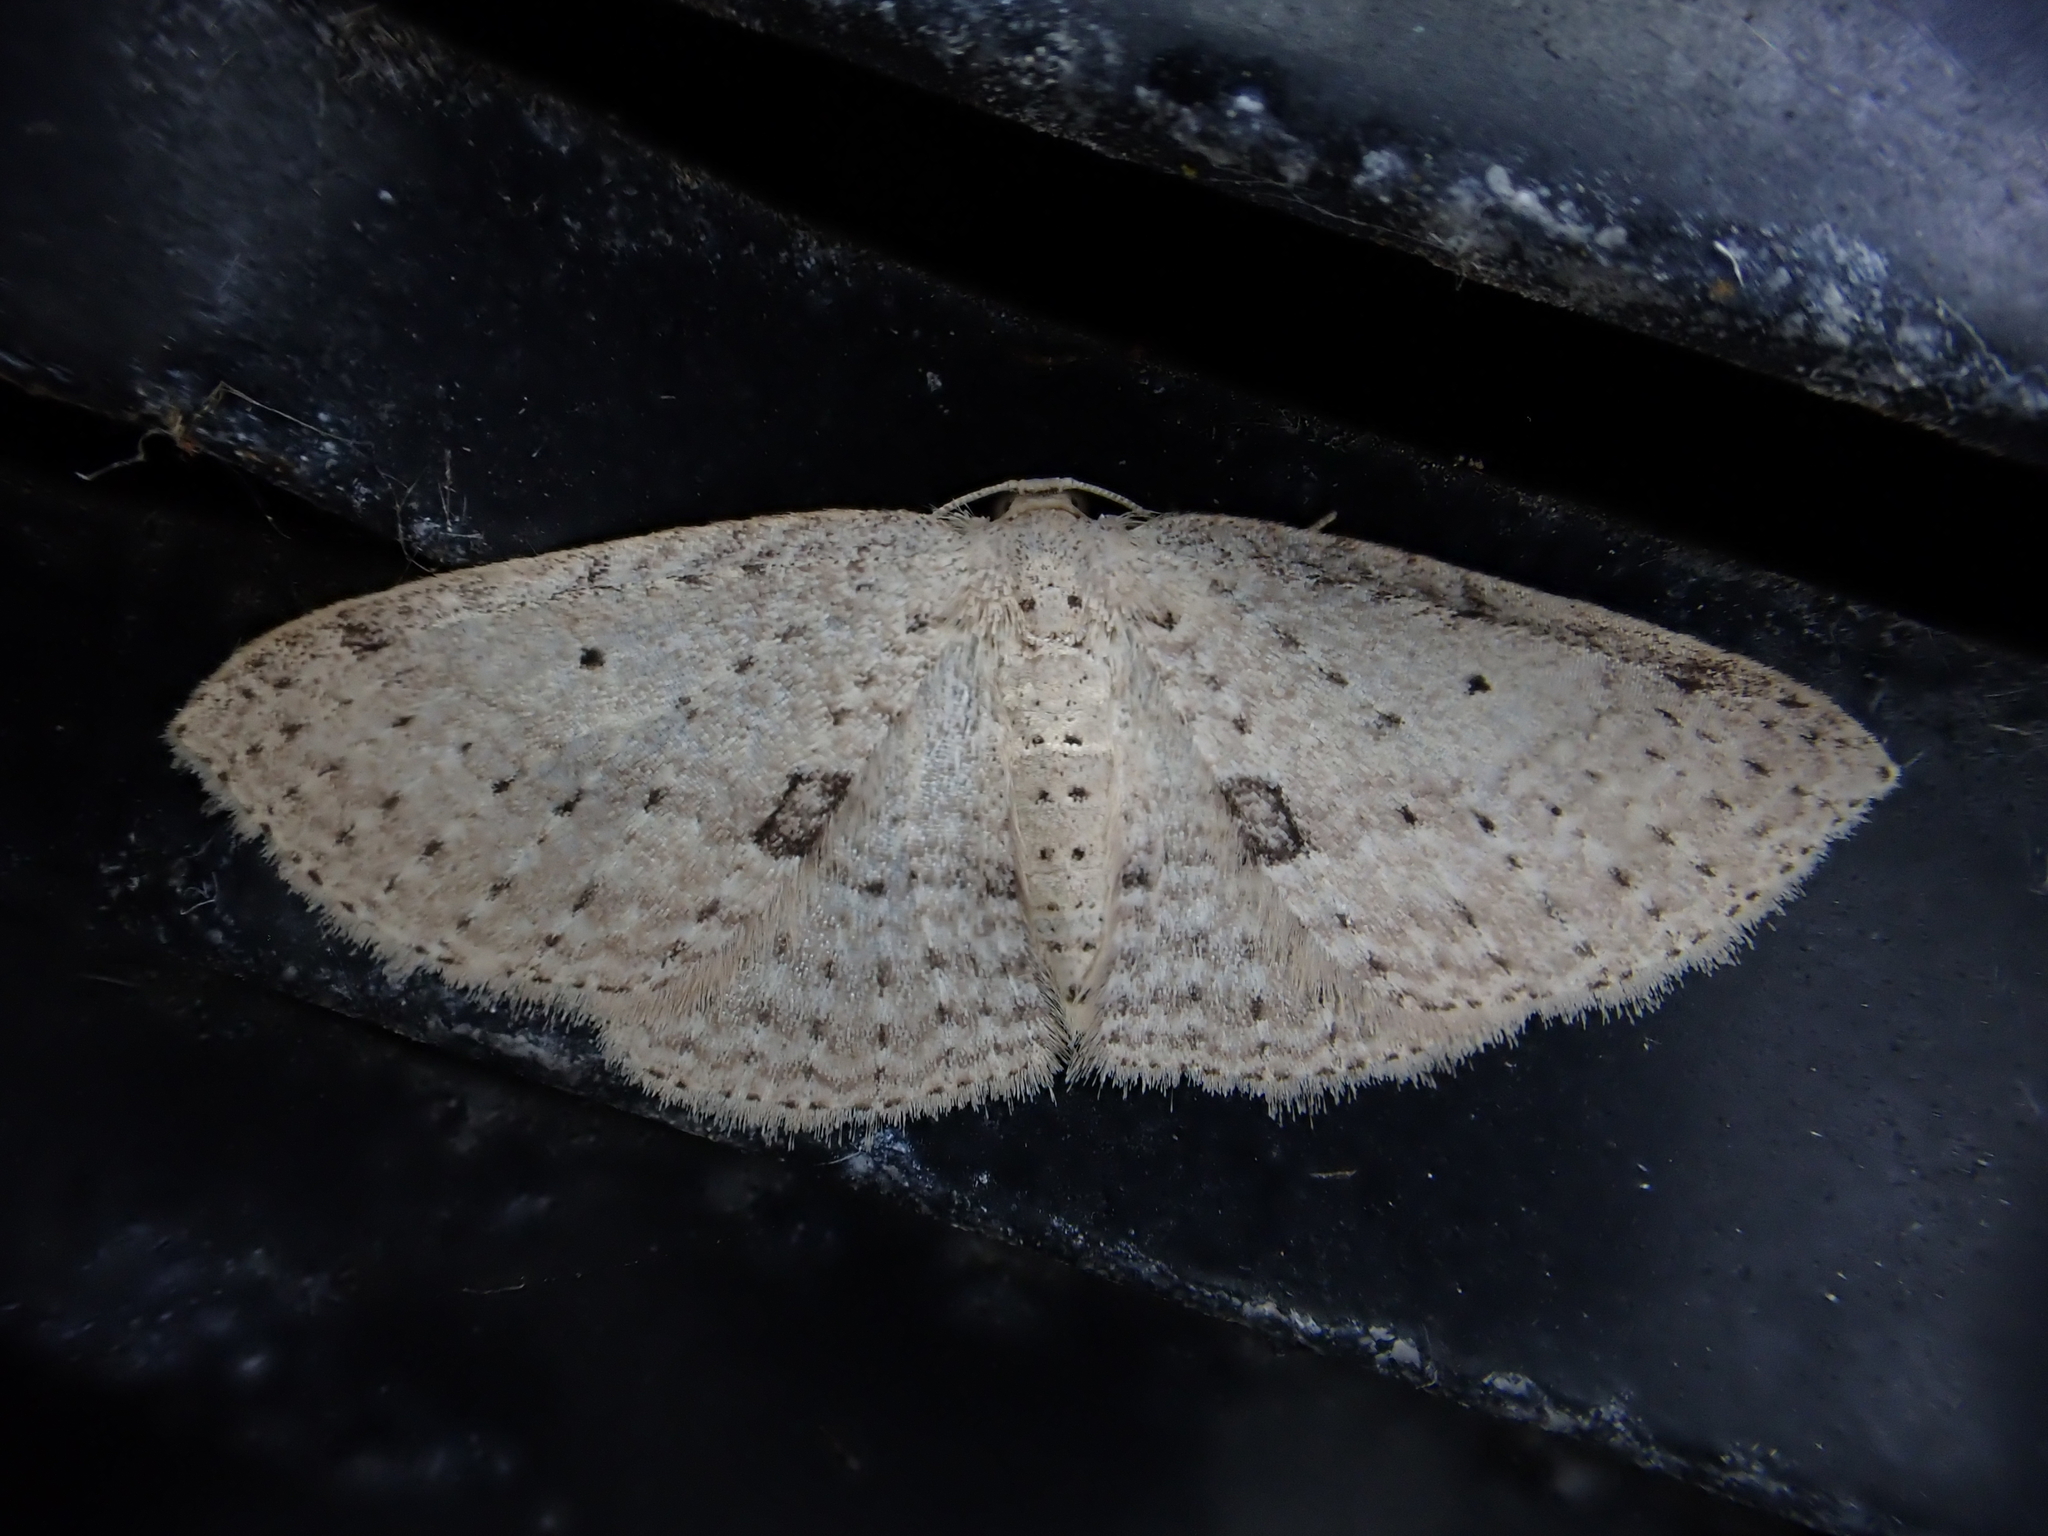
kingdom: Animalia
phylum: Arthropoda
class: Insecta
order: Lepidoptera
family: Geometridae
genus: Poecilasthena
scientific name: Poecilasthena schistaria
